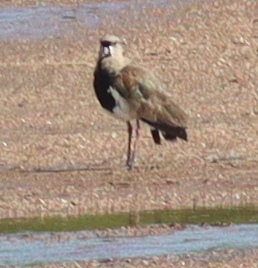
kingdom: Animalia
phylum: Chordata
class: Aves
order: Charadriiformes
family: Charadriidae
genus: Vanellus
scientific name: Vanellus chilensis
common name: Southern lapwing
